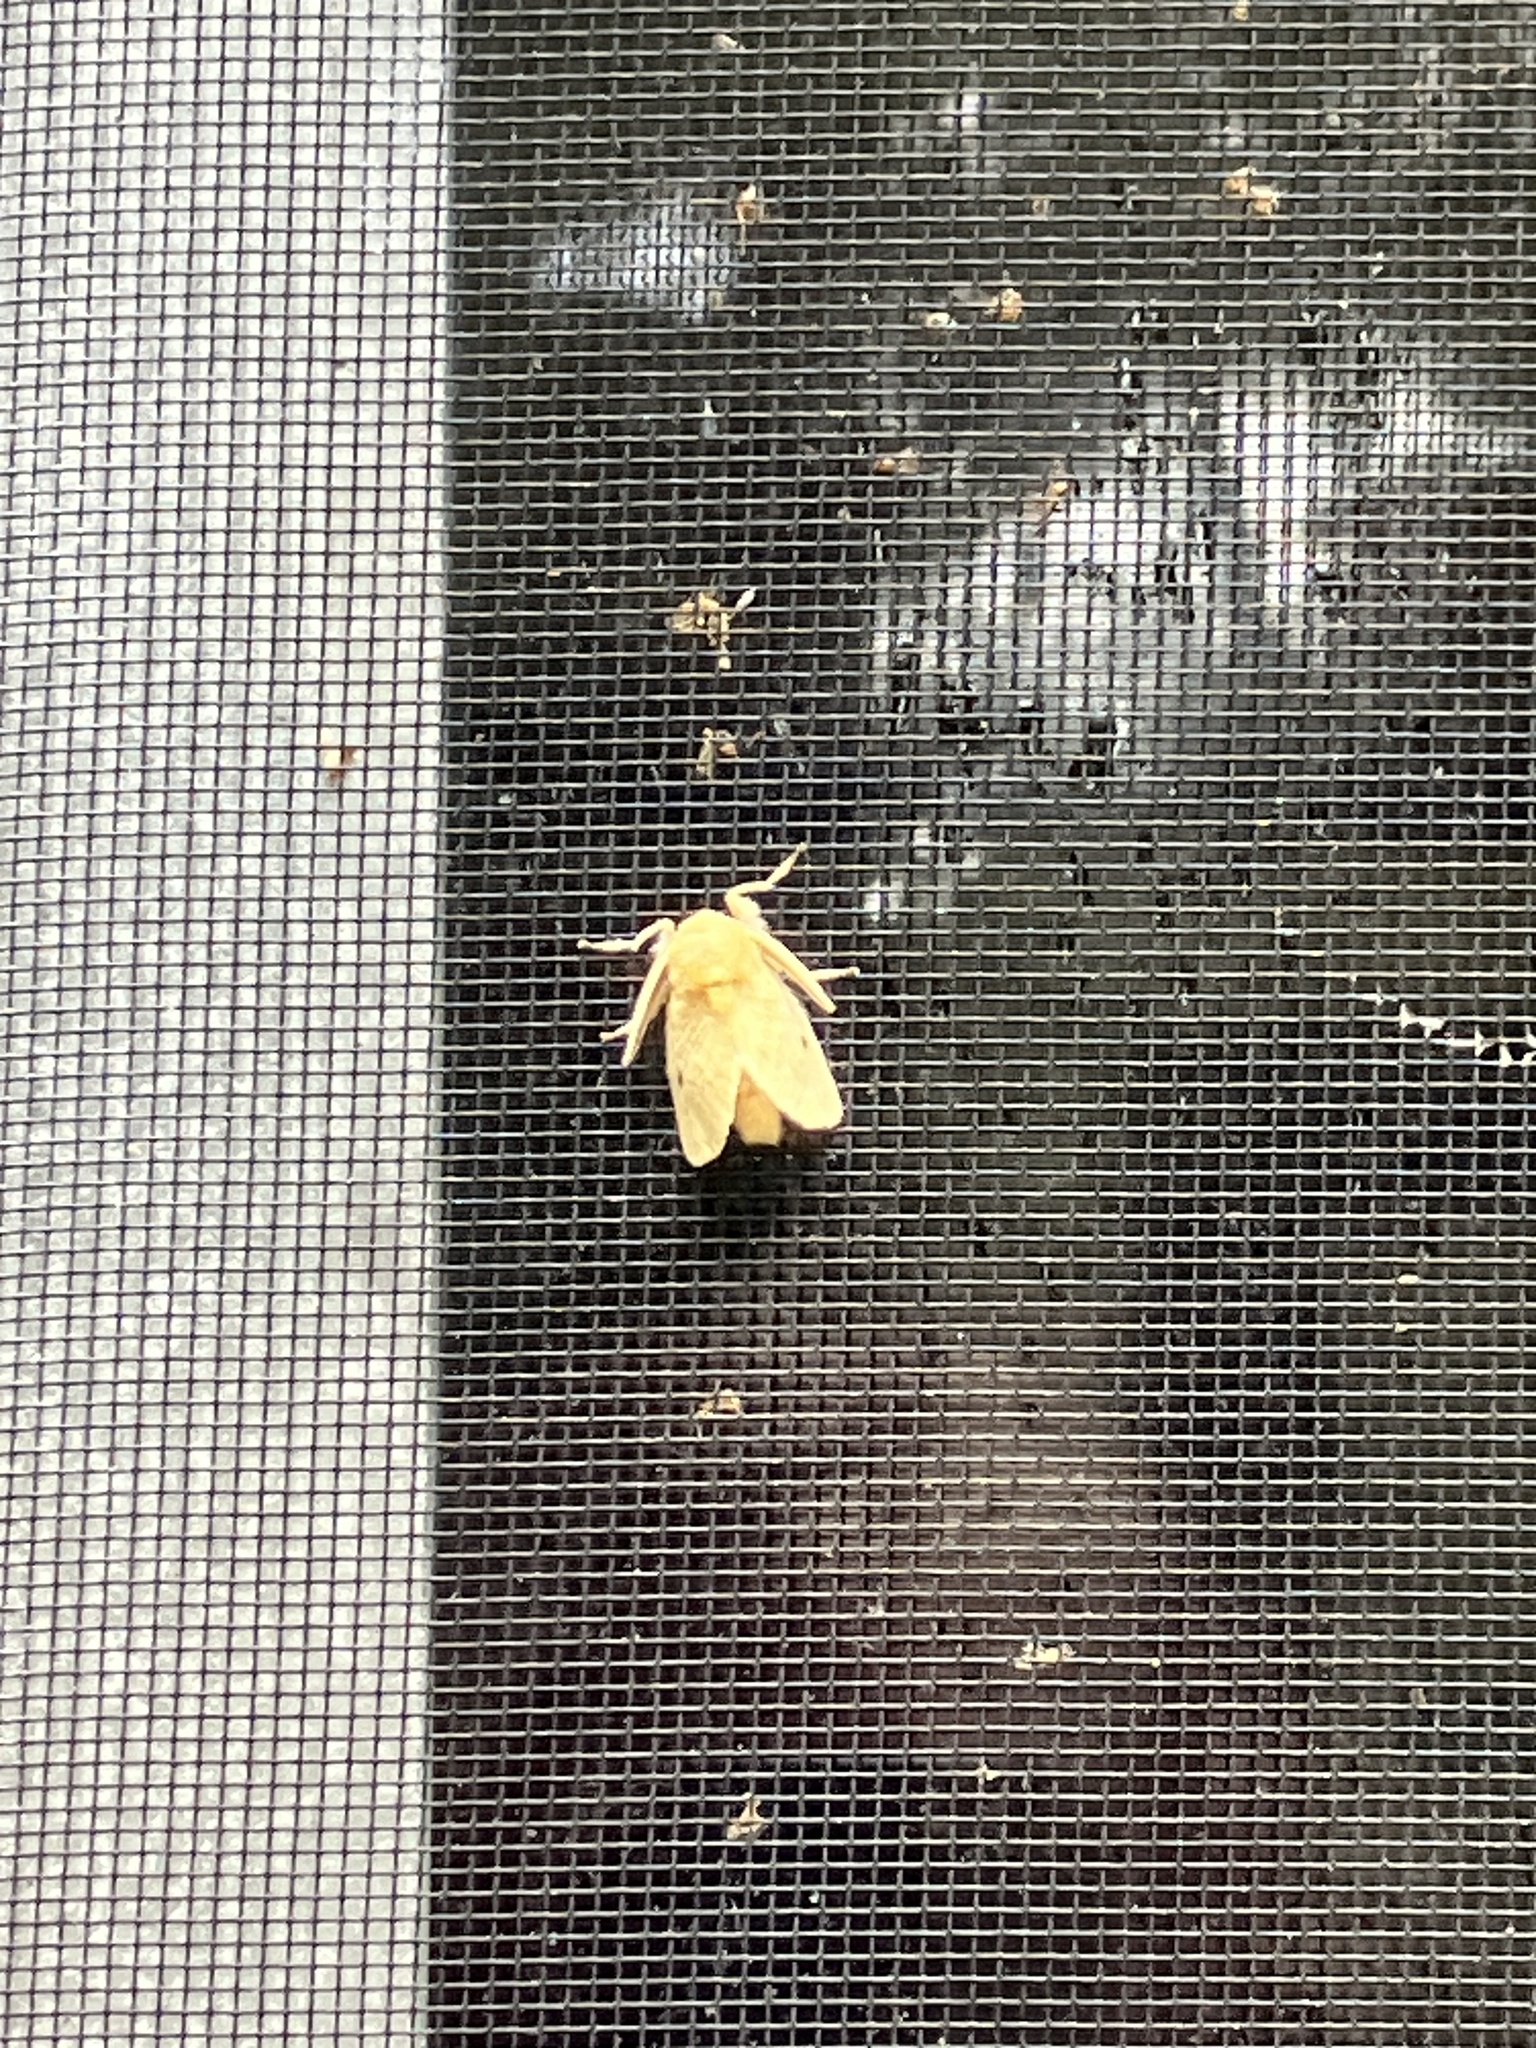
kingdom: Animalia
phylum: Arthropoda
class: Insecta
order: Lepidoptera
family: Megalopygidae
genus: Megalopyge
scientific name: Megalopyge crispata
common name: Black-waved flannel moth
